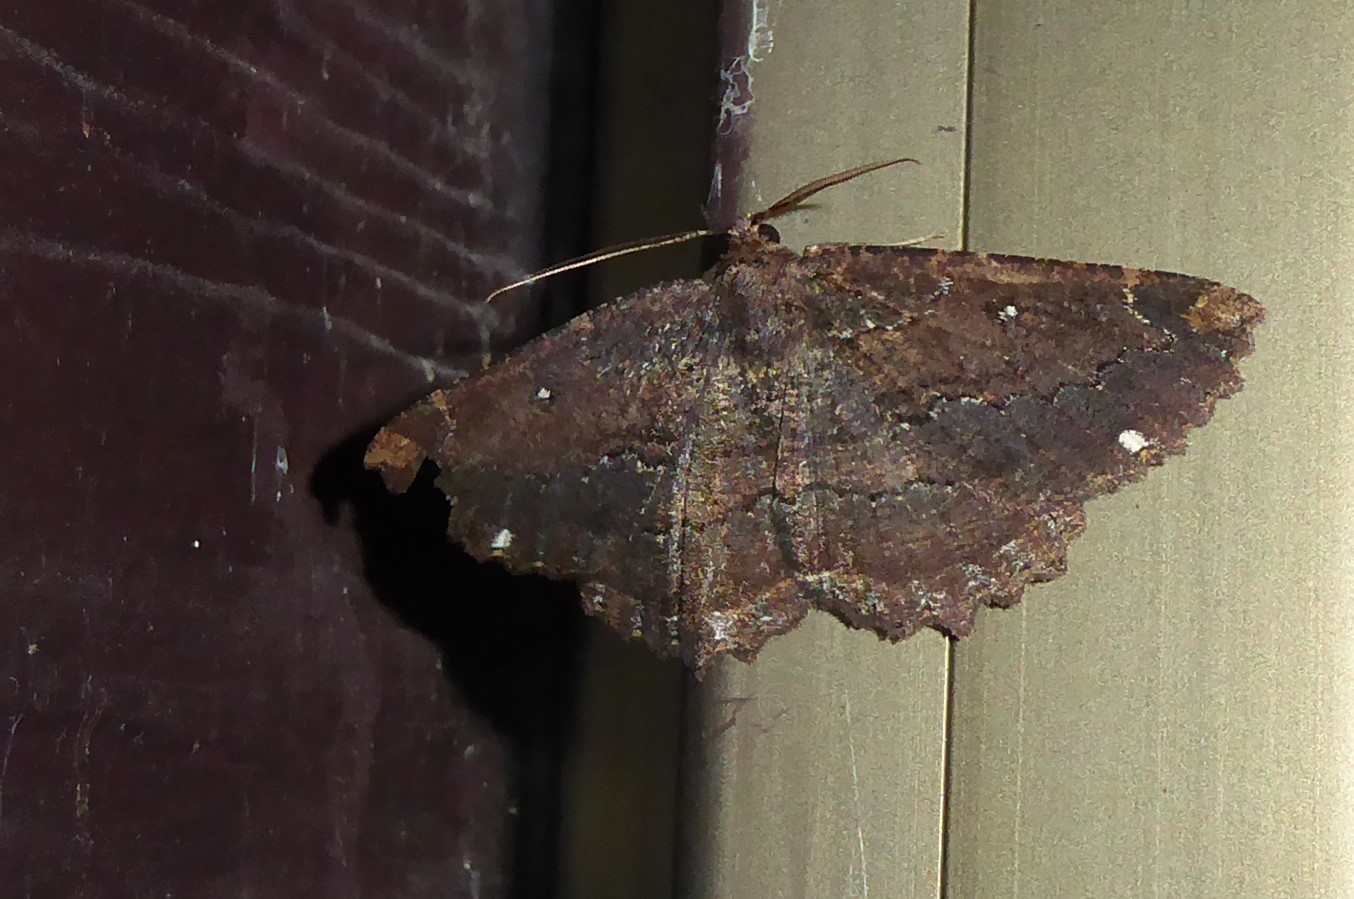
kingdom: Animalia
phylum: Arthropoda
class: Insecta
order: Lepidoptera
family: Geometridae
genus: Gellonia
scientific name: Gellonia dejectaria
